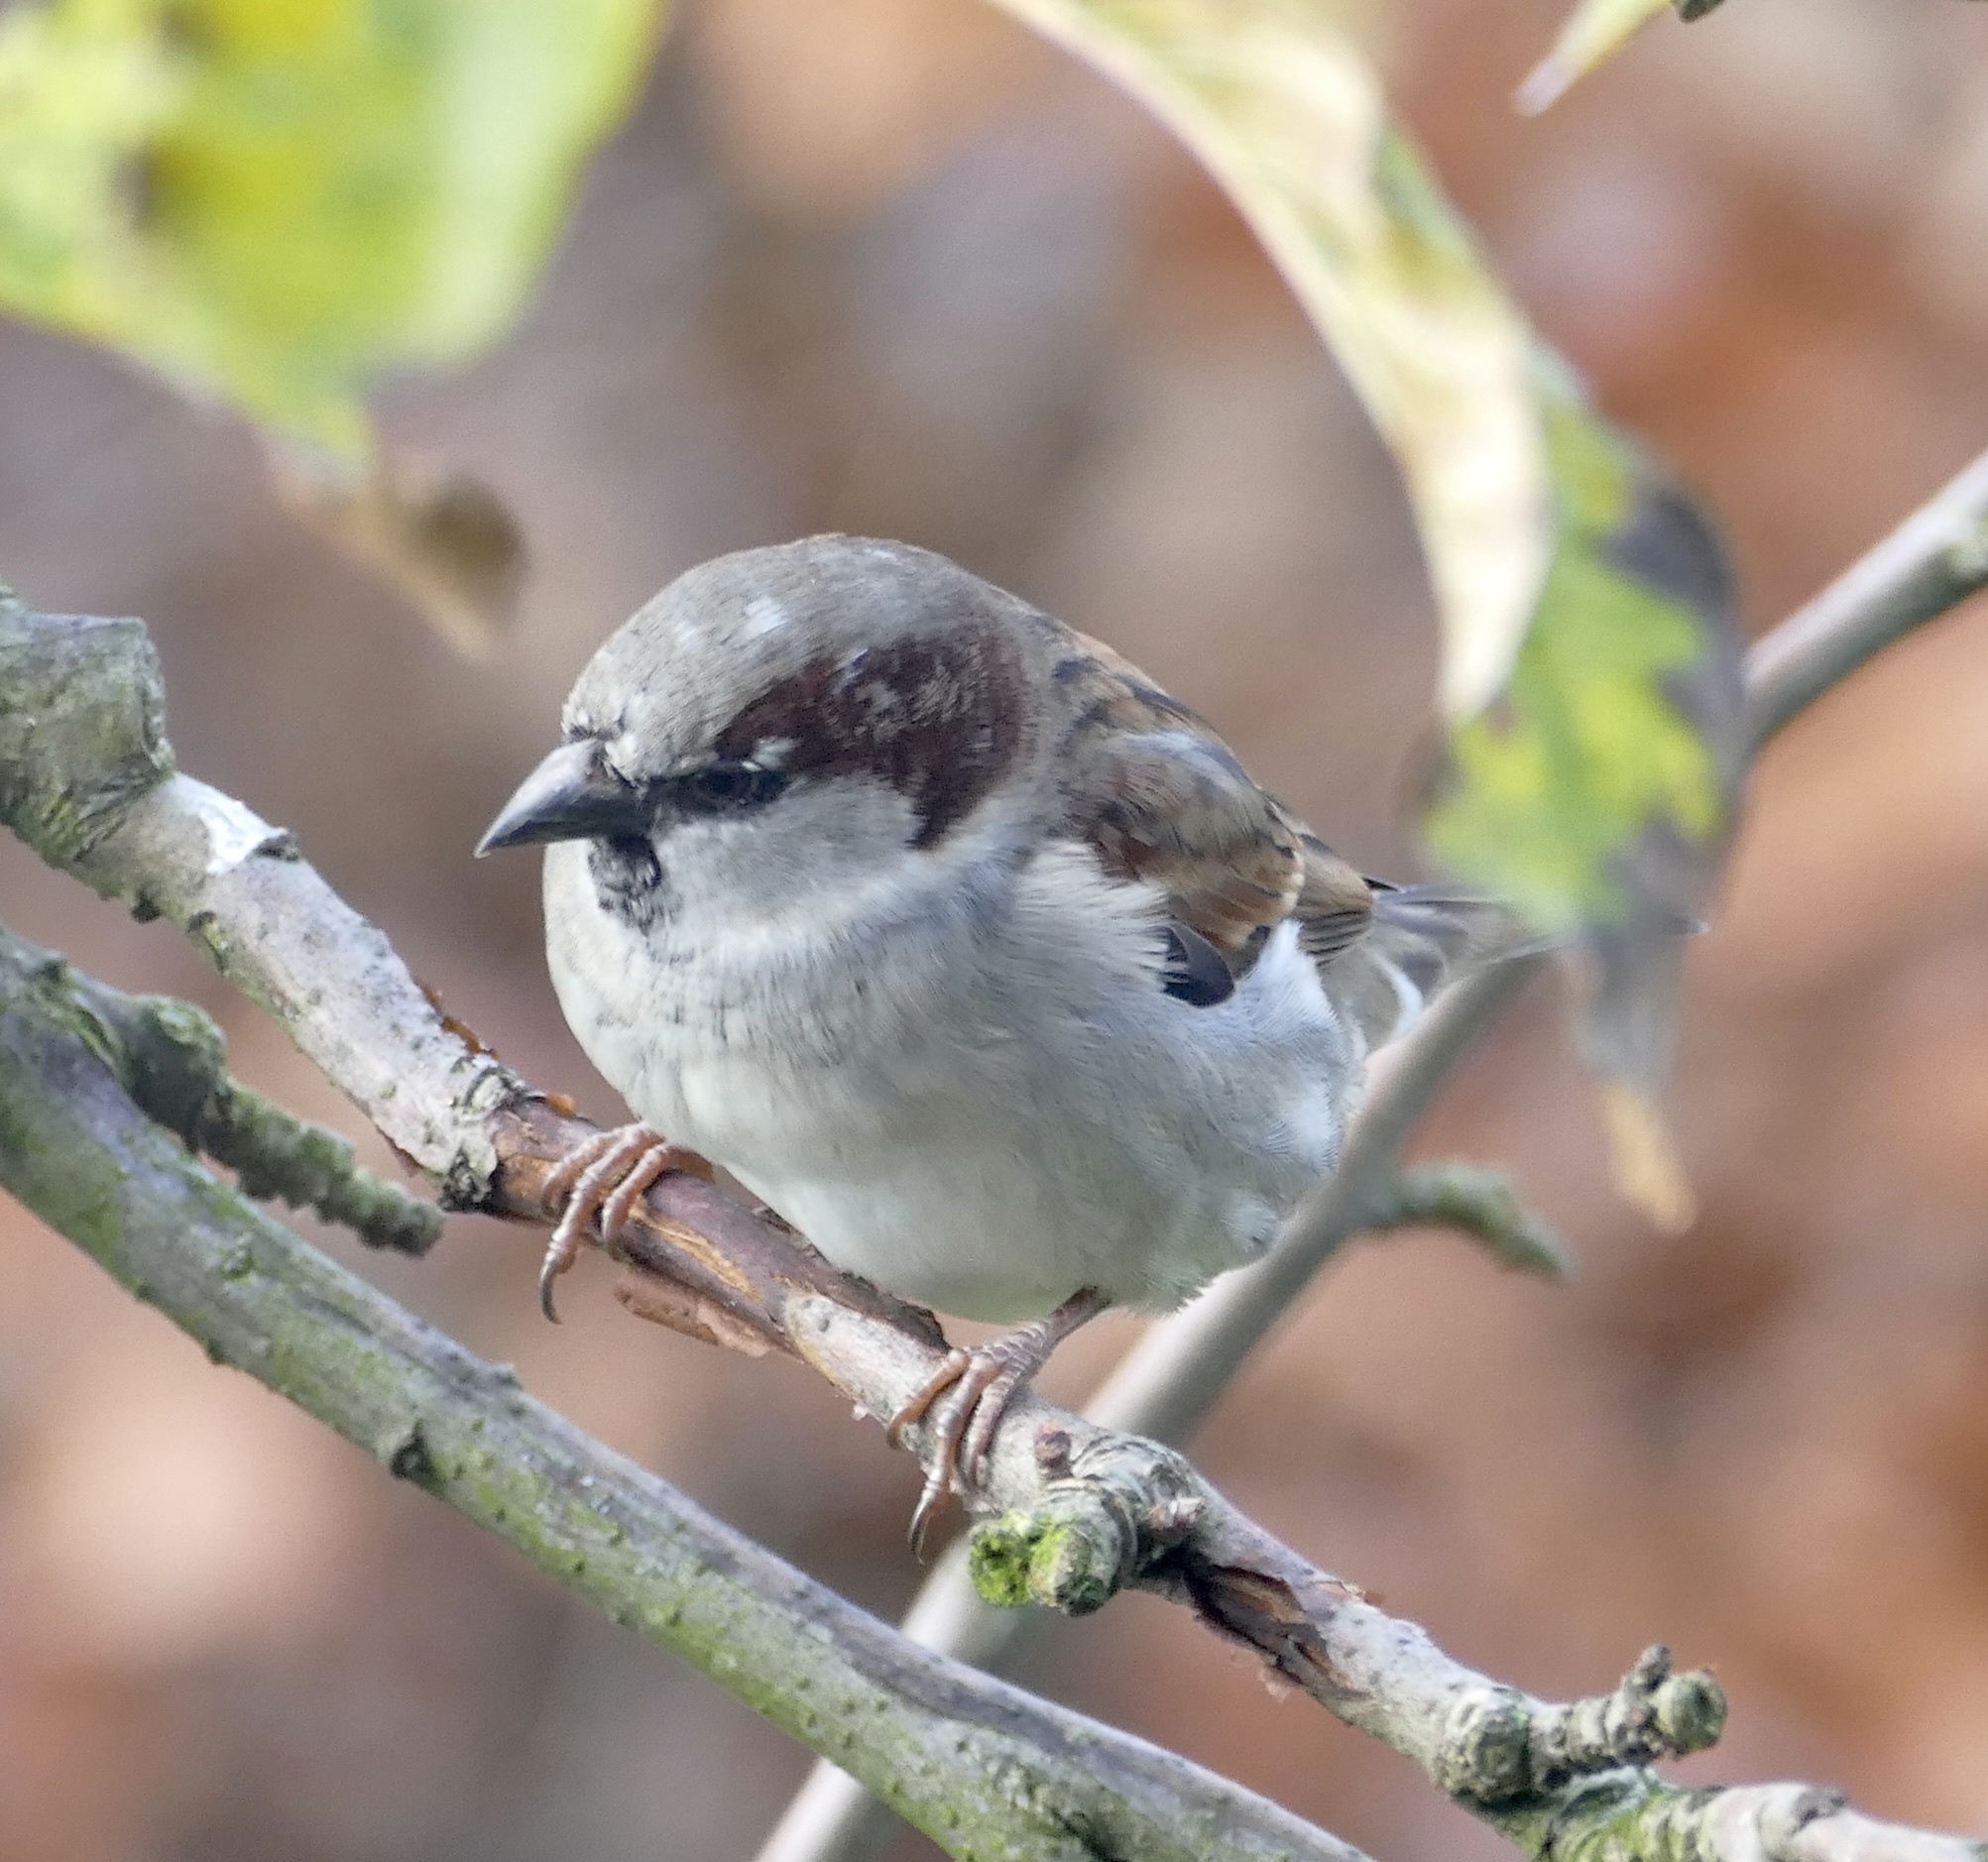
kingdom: Animalia
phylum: Chordata
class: Aves
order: Passeriformes
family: Passeridae
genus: Passer
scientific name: Passer domesticus
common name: House sparrow
